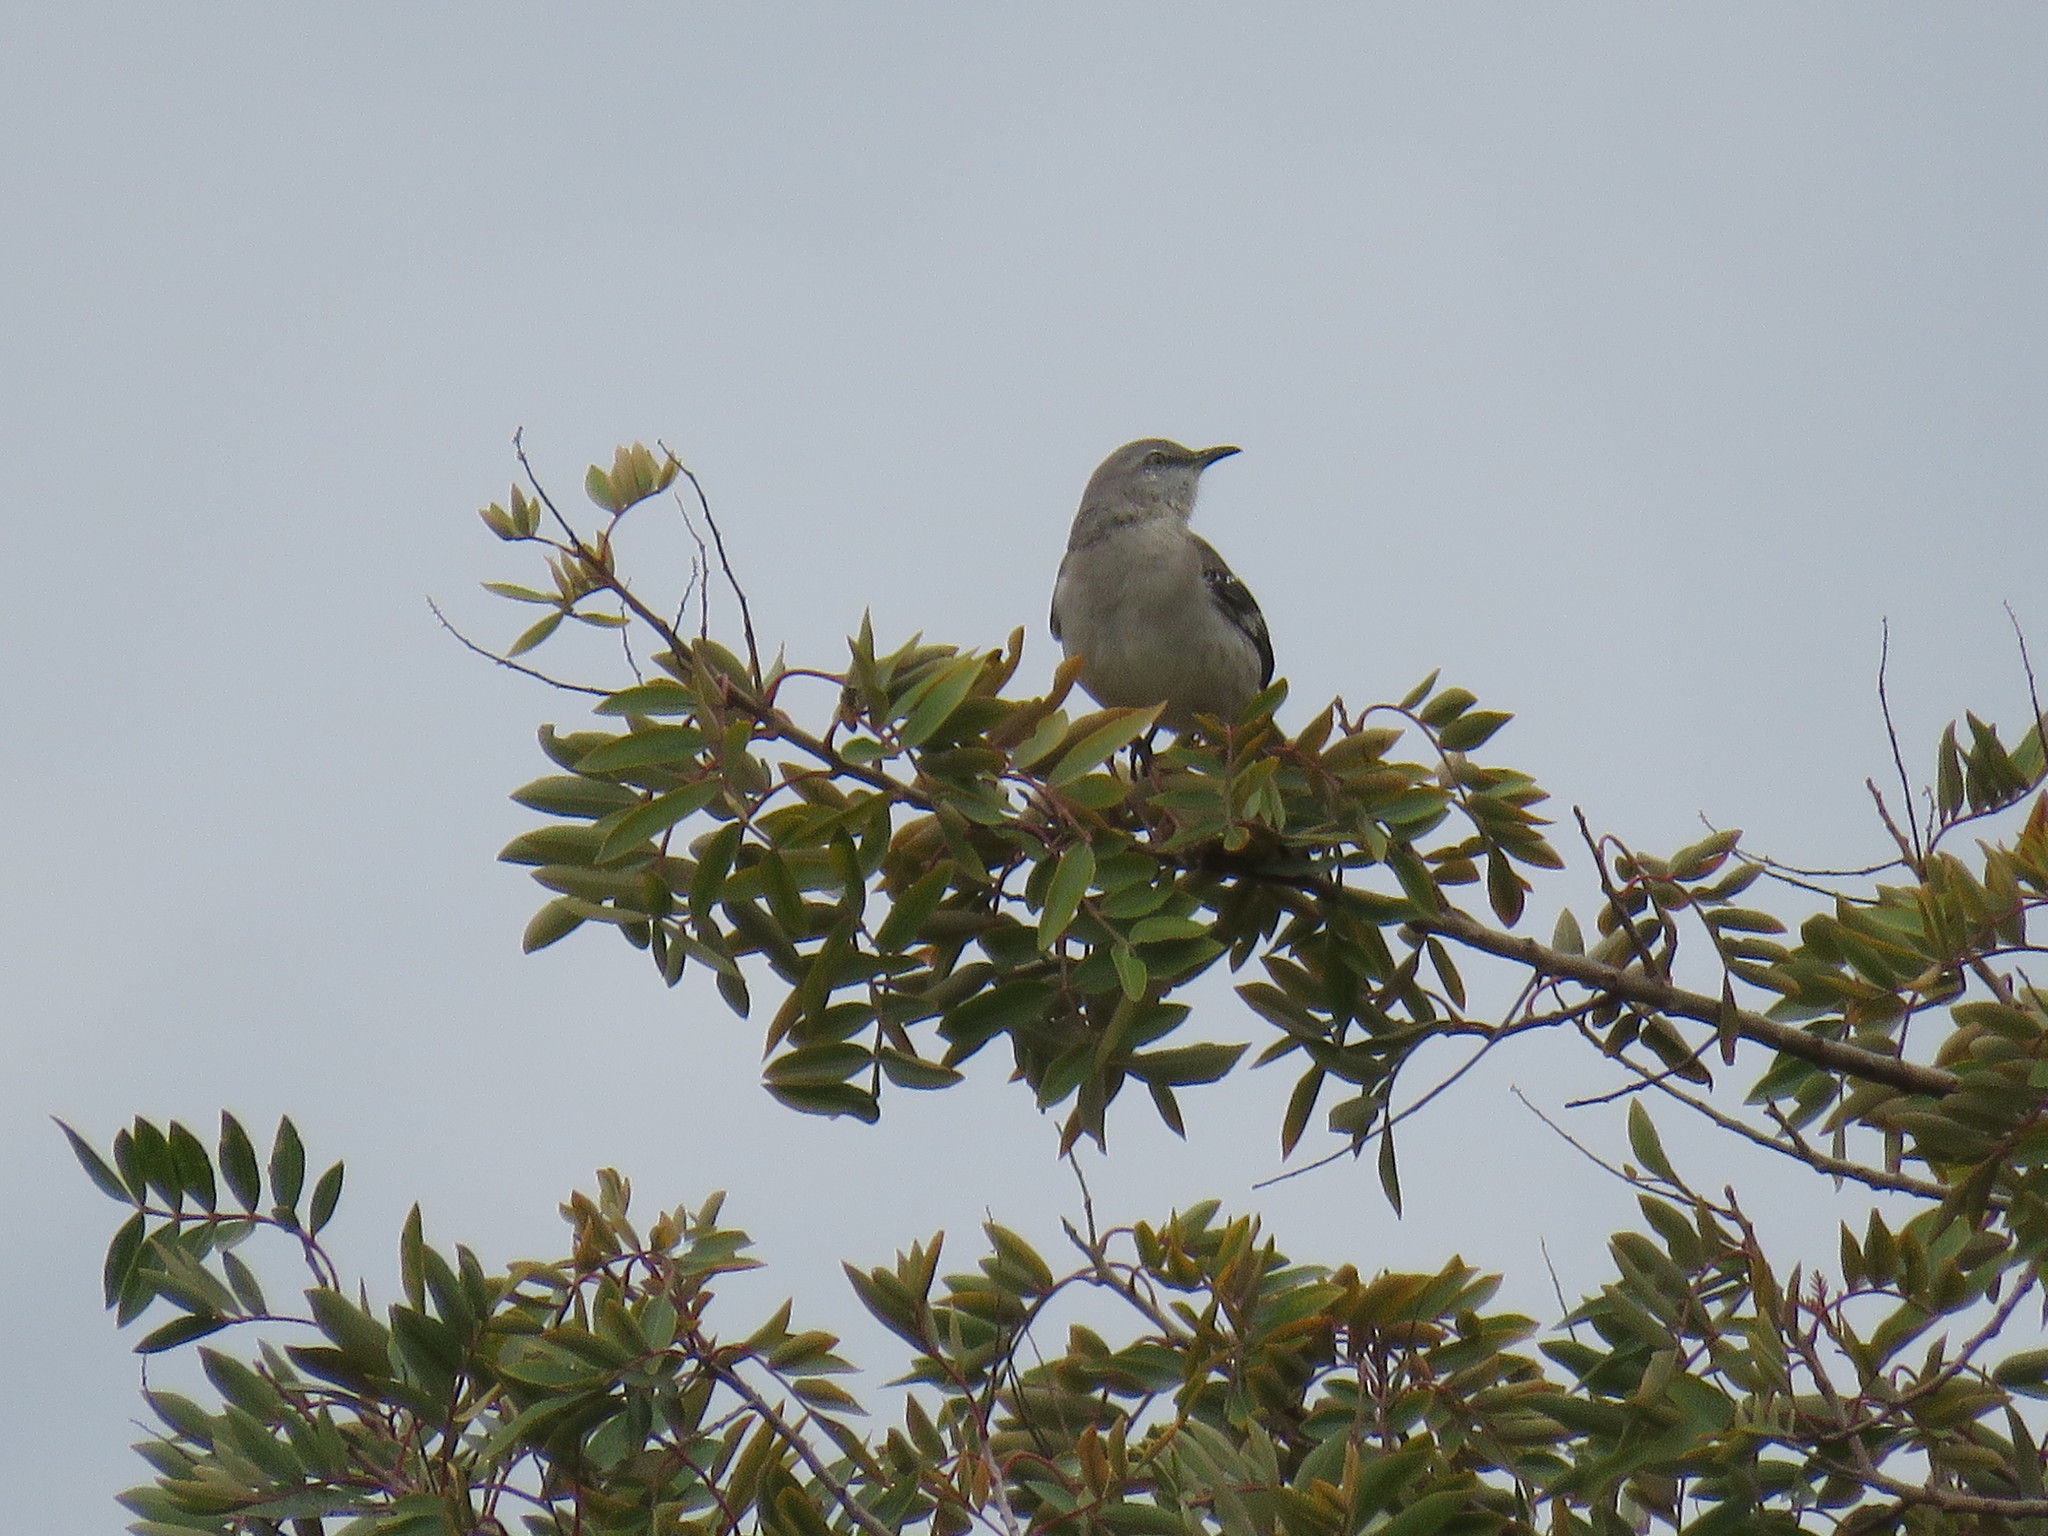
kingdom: Animalia
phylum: Chordata
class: Aves
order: Passeriformes
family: Mimidae
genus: Mimus
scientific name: Mimus polyglottos
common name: Northern mockingbird
